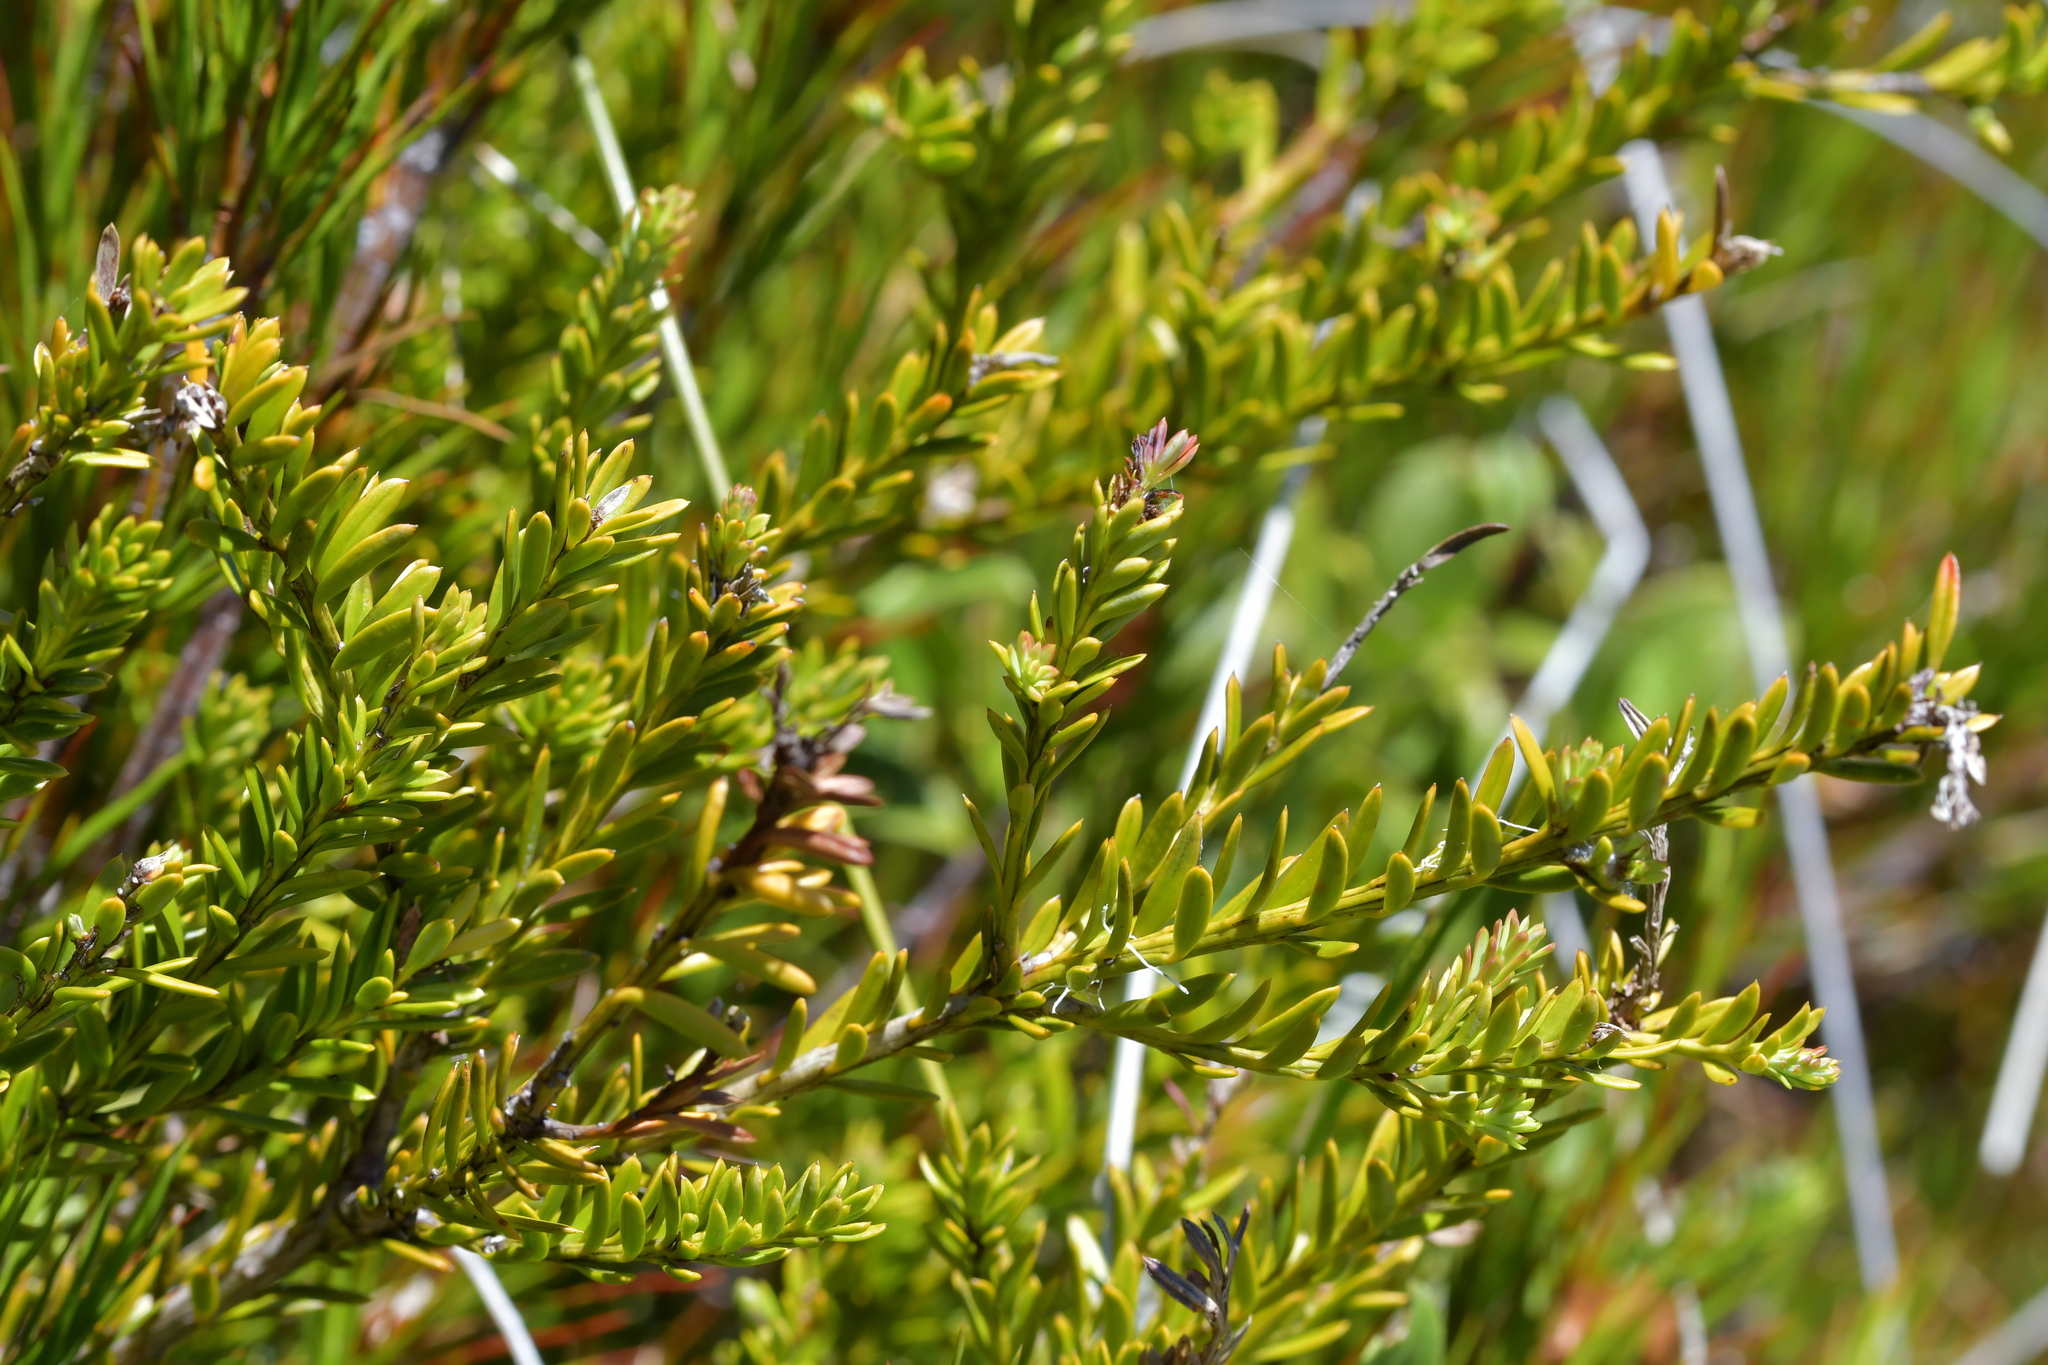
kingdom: Plantae
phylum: Tracheophyta
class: Pinopsida
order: Pinales
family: Podocarpaceae
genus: Podocarpus
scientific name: Podocarpus nivalis
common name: Alpine totara
